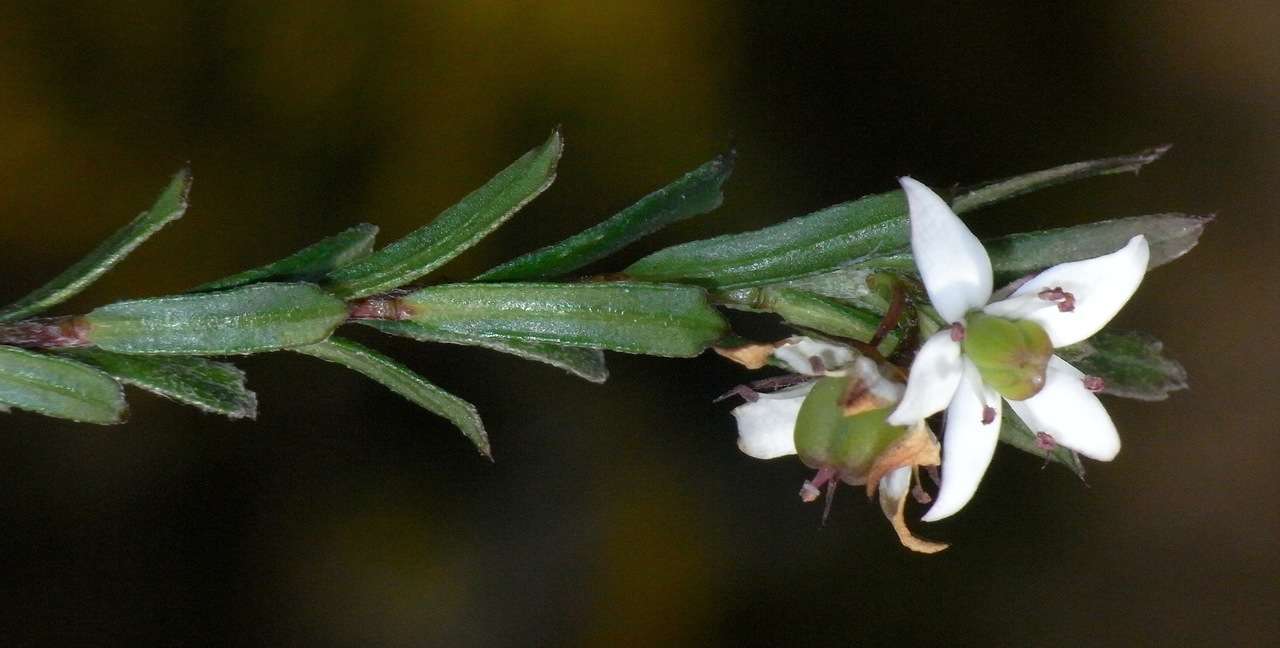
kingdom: Plantae
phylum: Tracheophyta
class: Magnoliopsida
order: Apiales
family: Pittosporaceae
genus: Rhytidosporum
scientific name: Rhytidosporum procumbens
